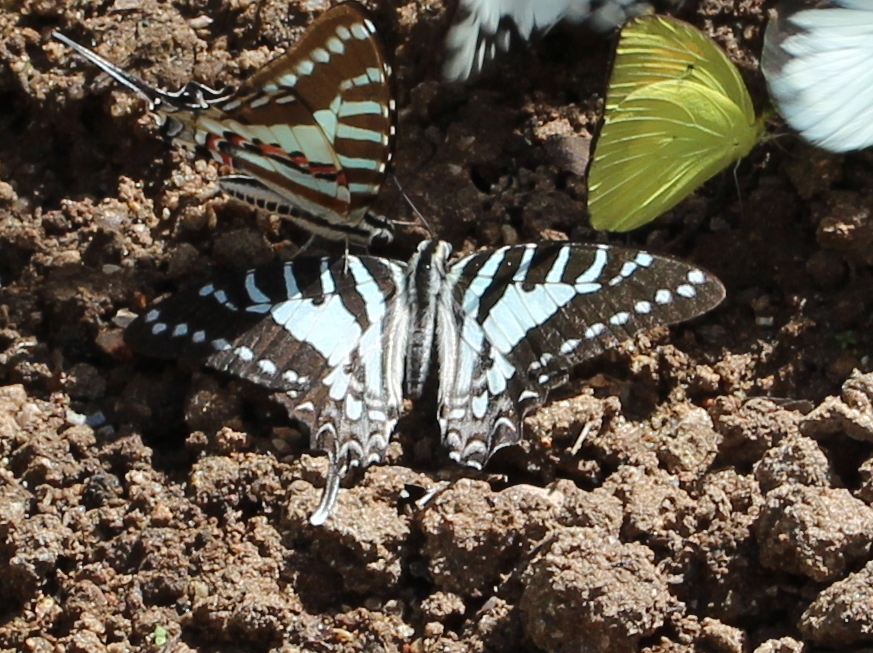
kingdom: Animalia
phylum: Arthropoda
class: Insecta
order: Lepidoptera
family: Papilionidae
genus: Graphium
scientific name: Graphium nomius
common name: Spot swordtail
